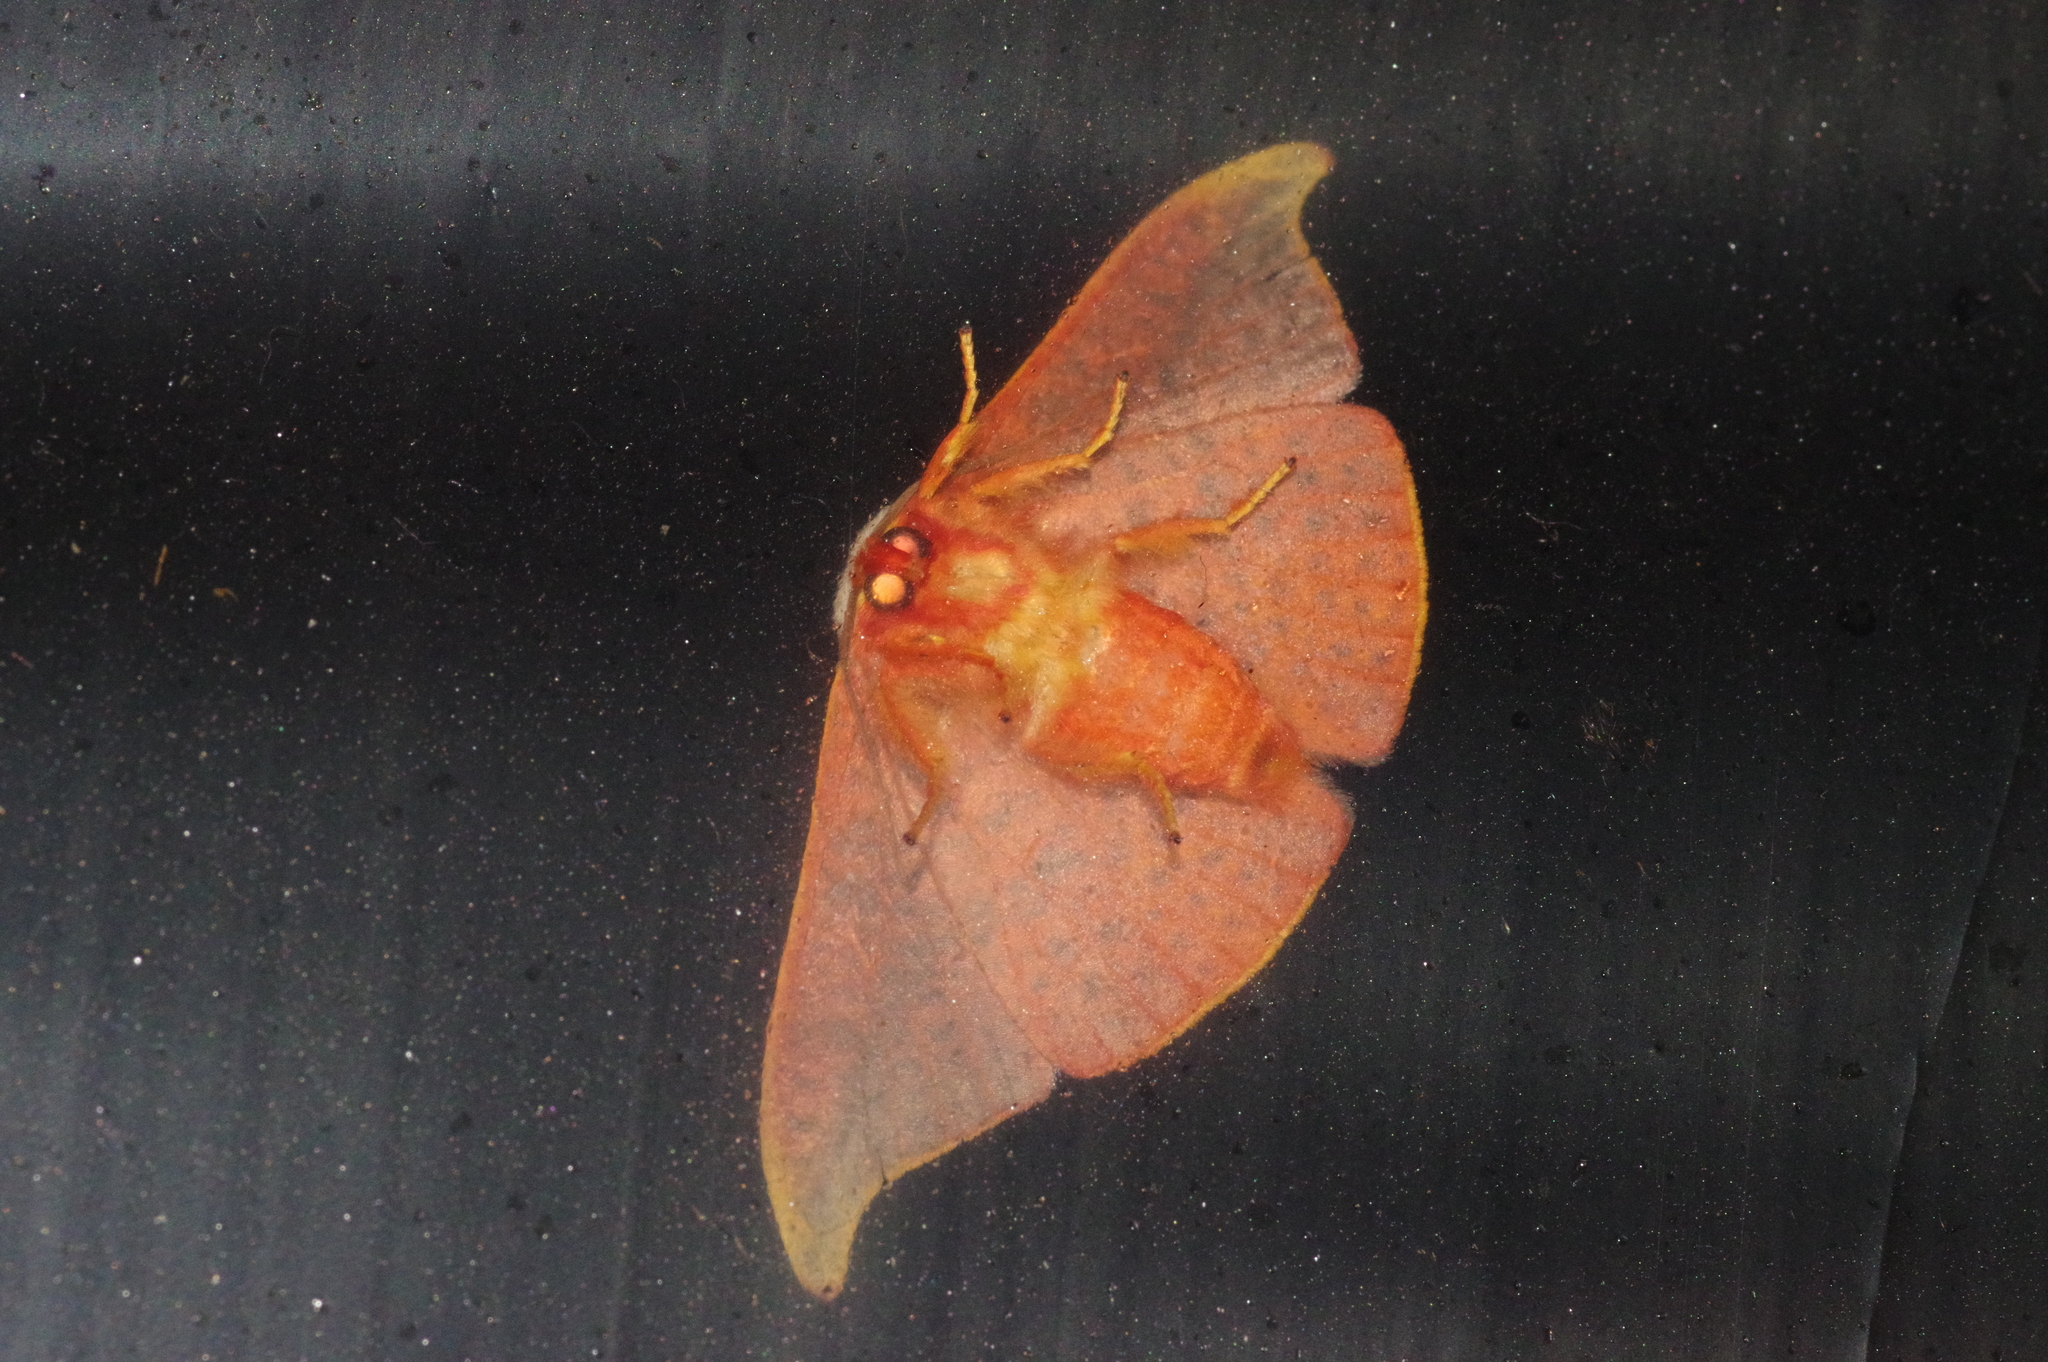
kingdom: Animalia
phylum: Arthropoda
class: Insecta
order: Lepidoptera
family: Drepanidae
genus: Oreta
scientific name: Oreta insignis
